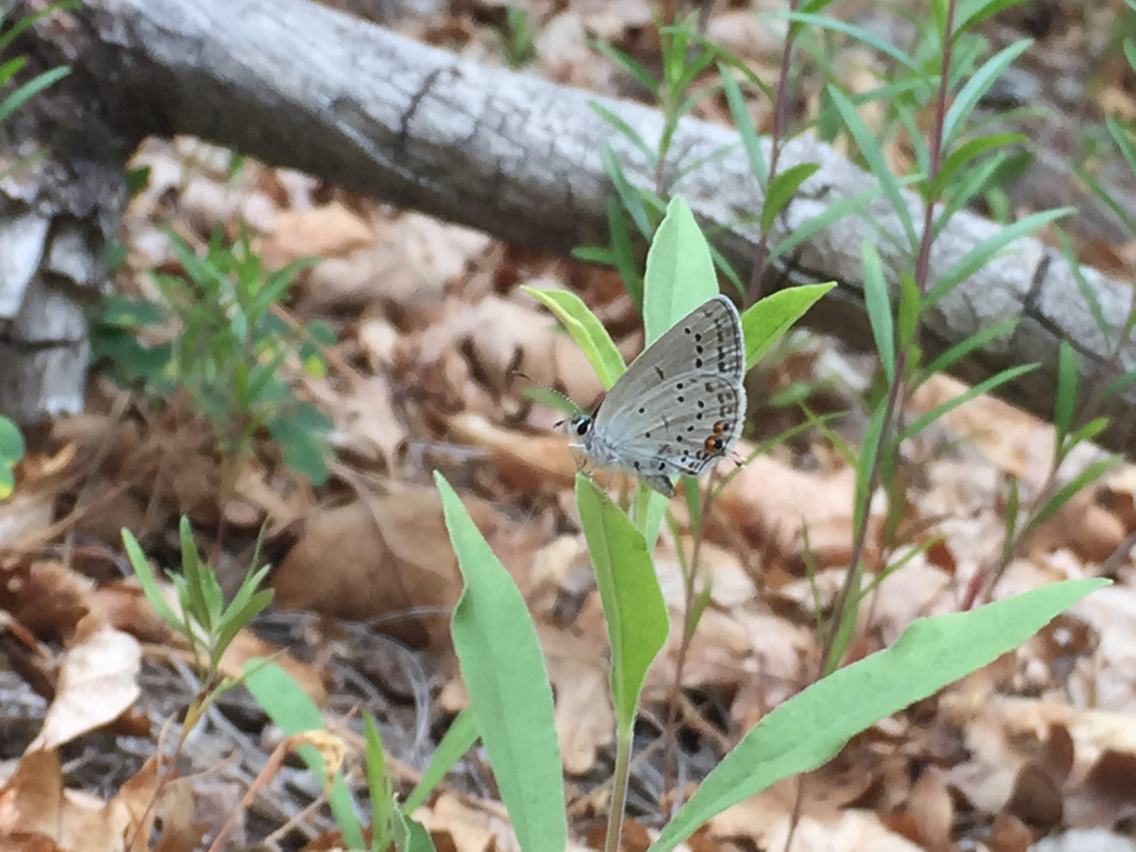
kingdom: Animalia
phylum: Arthropoda
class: Insecta
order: Lepidoptera
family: Lycaenidae
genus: Elkalyce
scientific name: Elkalyce amyntula
